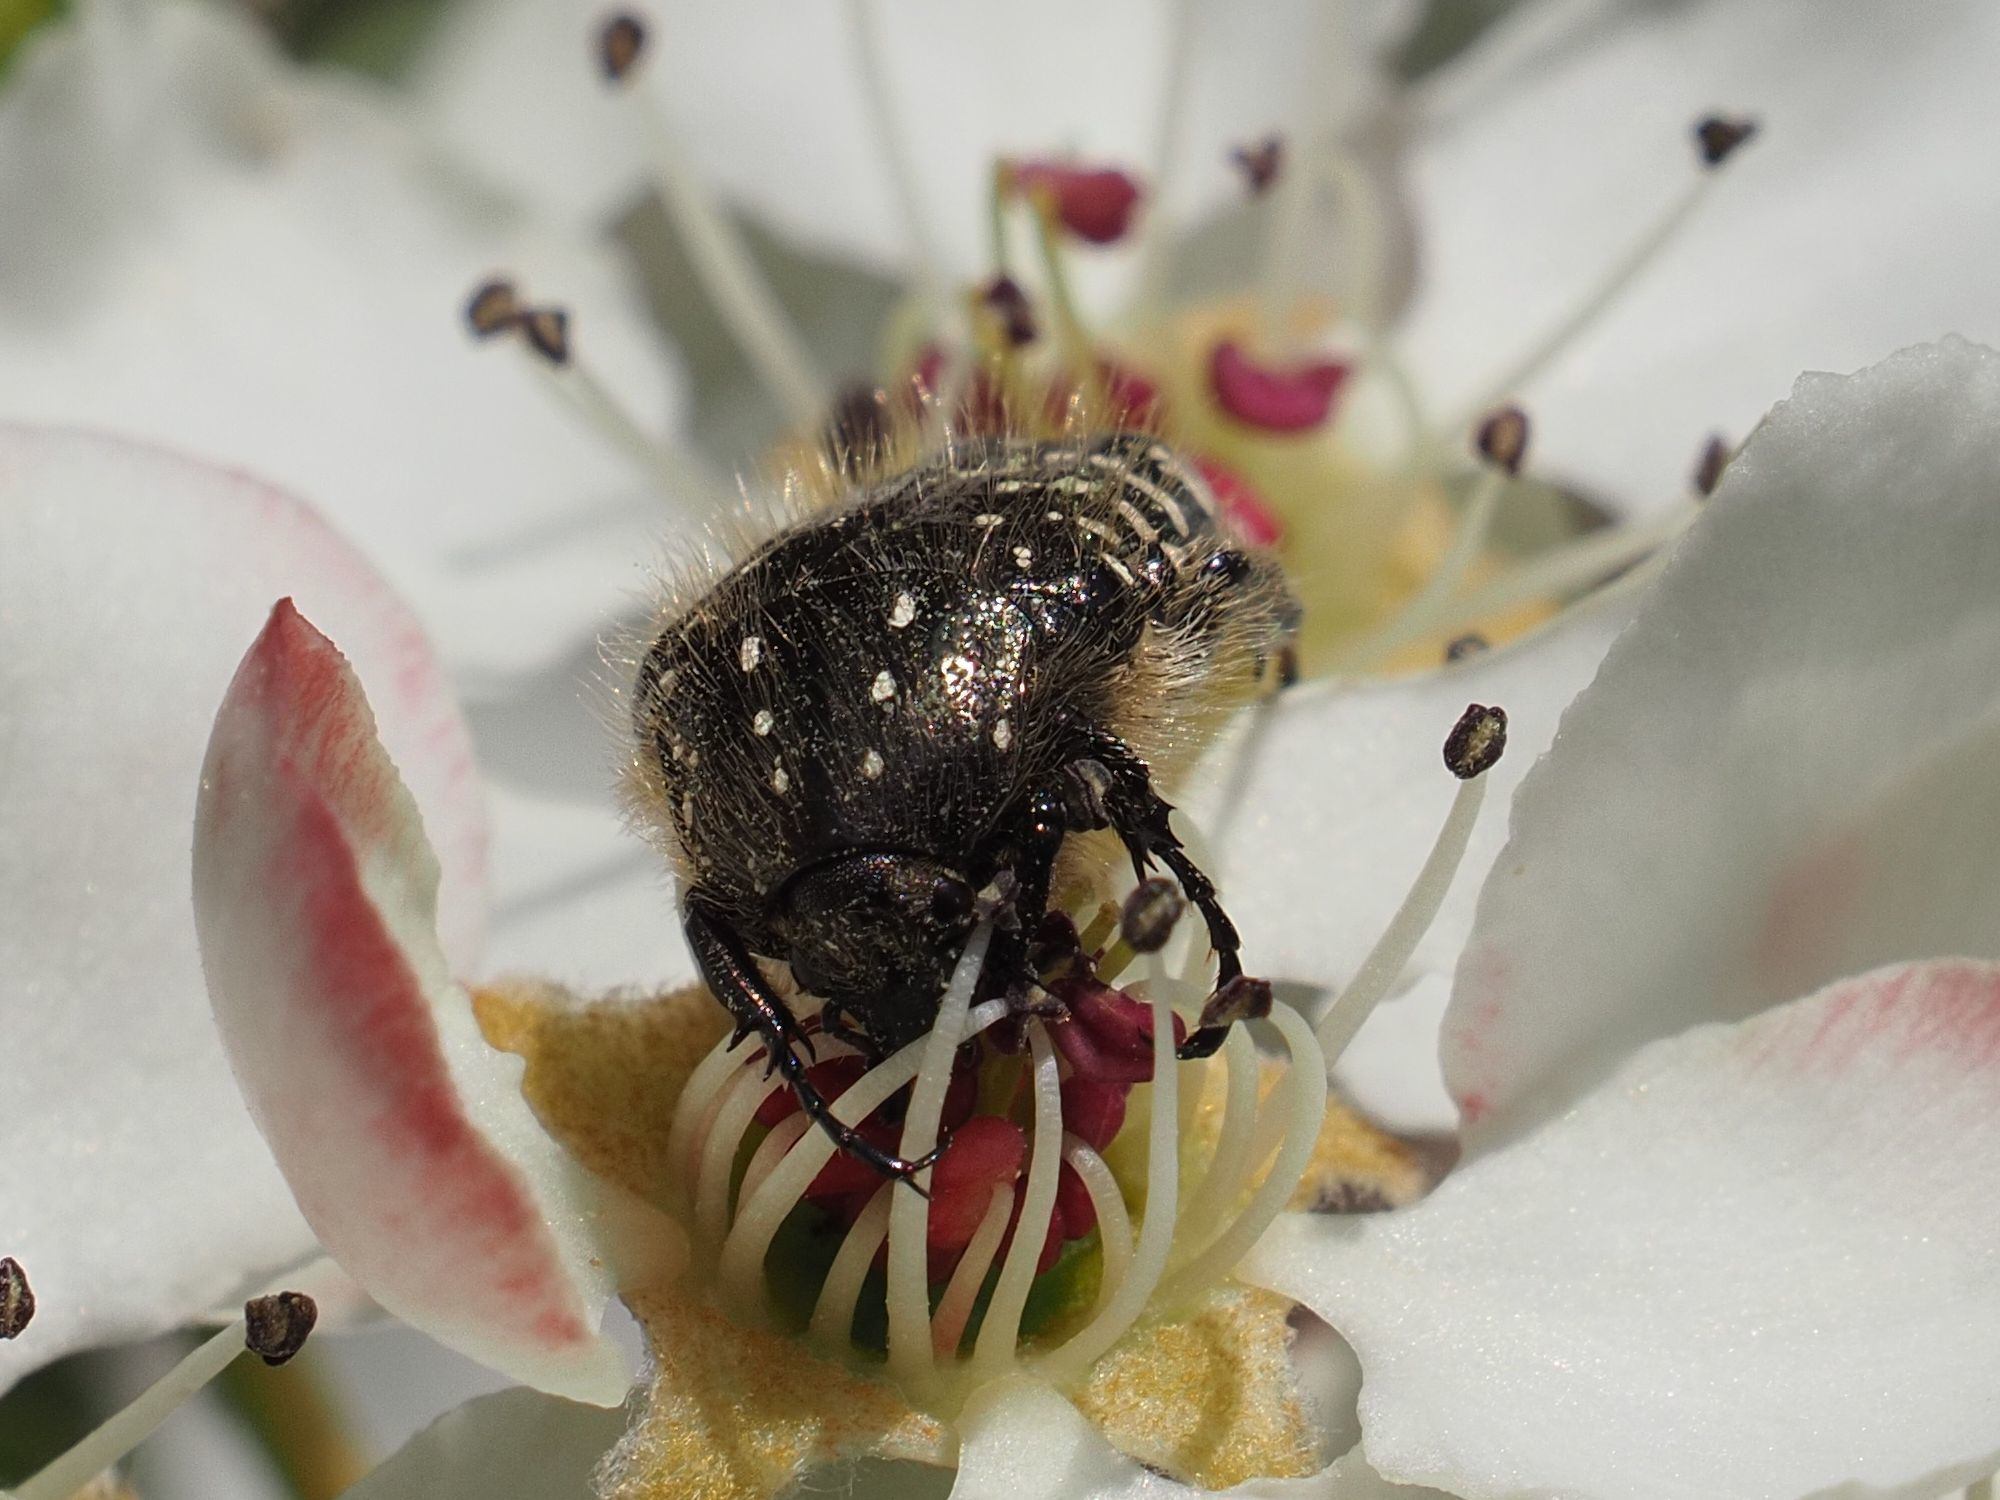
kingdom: Animalia
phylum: Arthropoda
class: Insecta
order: Coleoptera
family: Scarabaeidae
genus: Oxythyrea
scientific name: Oxythyrea funesta
